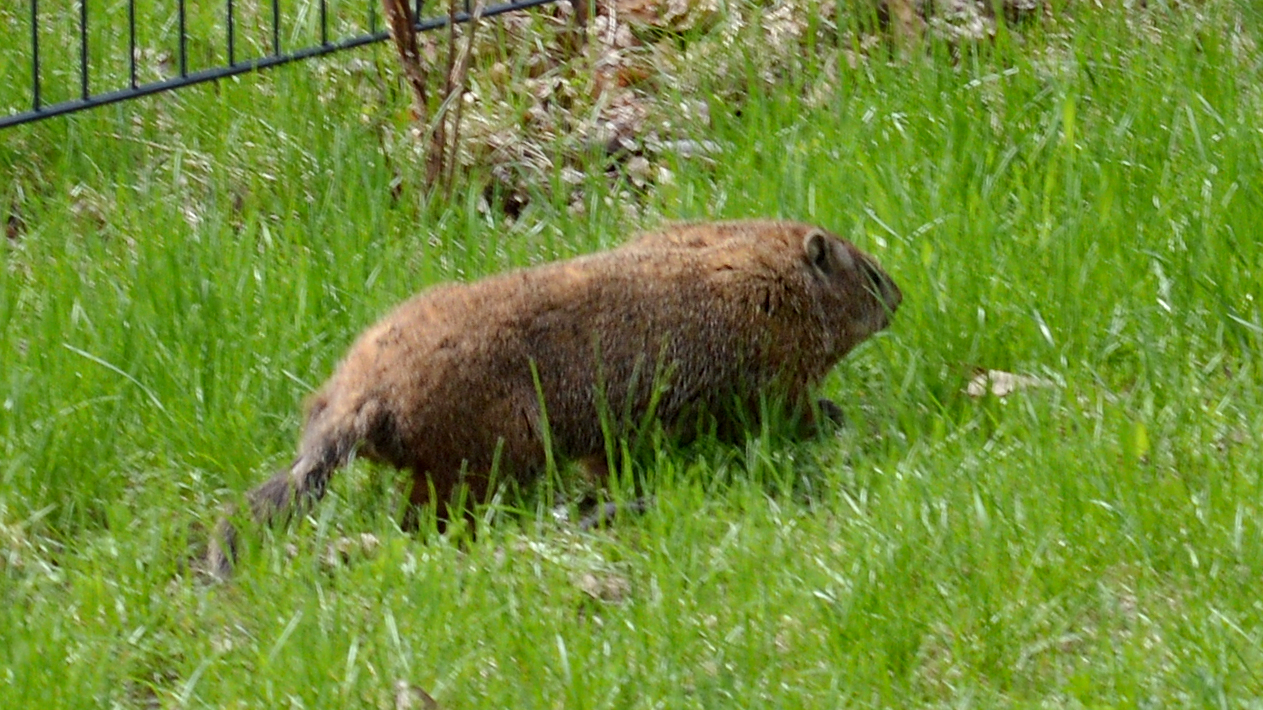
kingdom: Animalia
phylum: Chordata
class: Mammalia
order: Rodentia
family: Sciuridae
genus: Marmota
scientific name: Marmota monax
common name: Groundhog
